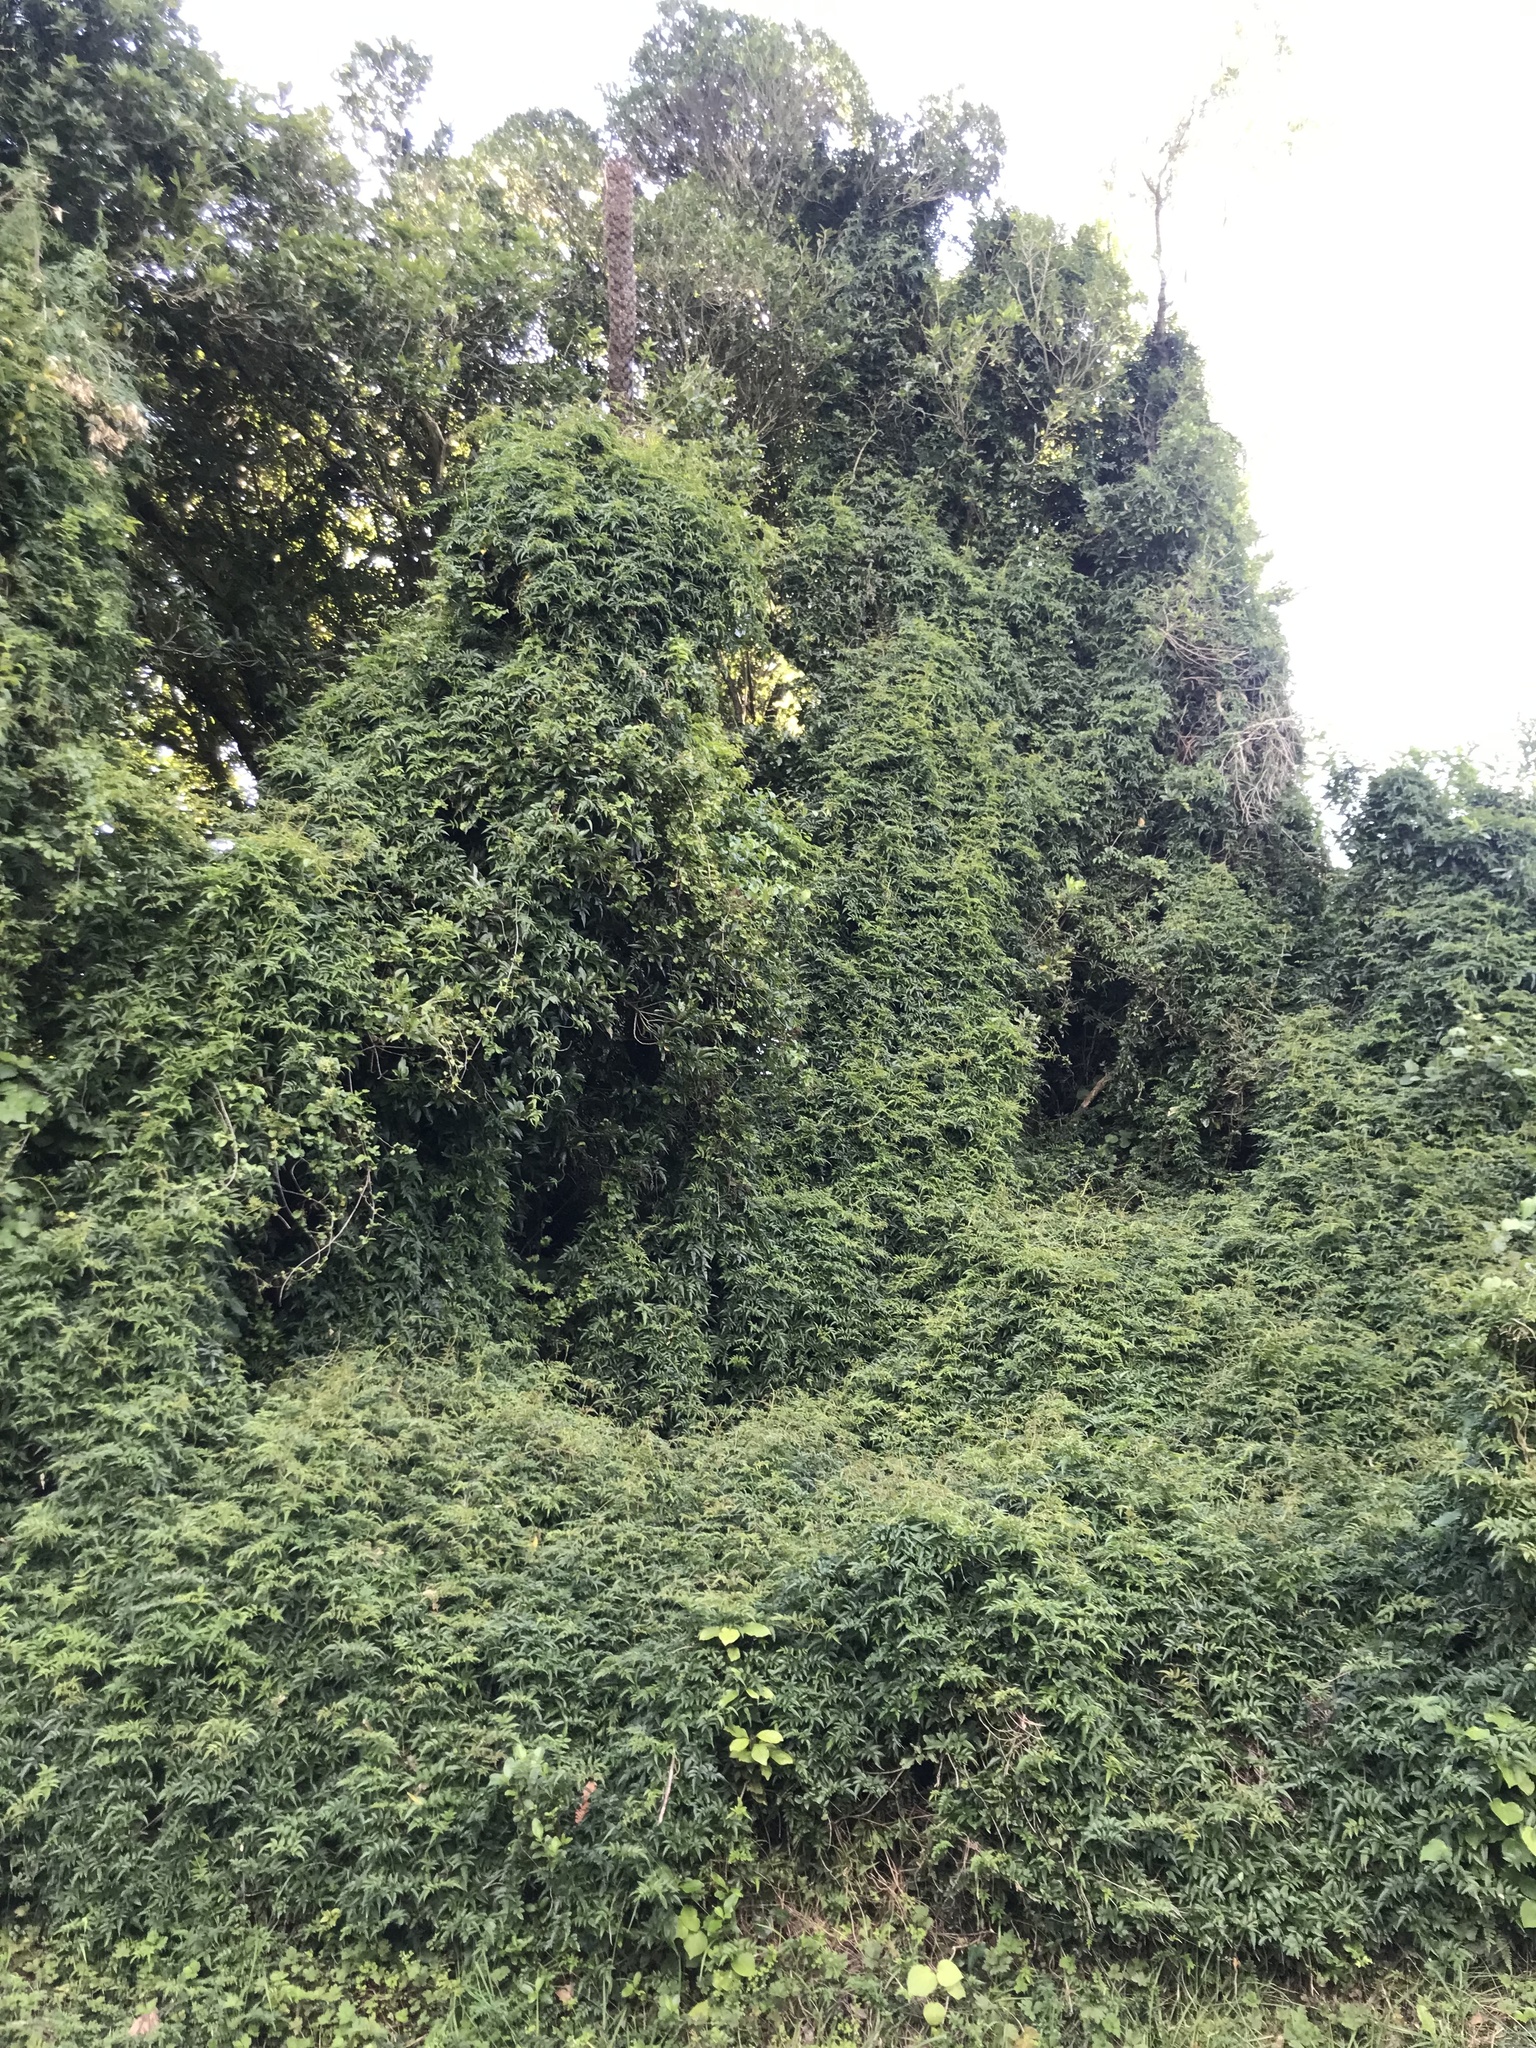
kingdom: Plantae
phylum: Tracheophyta
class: Magnoliopsida
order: Lamiales
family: Oleaceae
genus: Jasminum
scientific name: Jasminum polyanthum
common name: Pink jasmine
